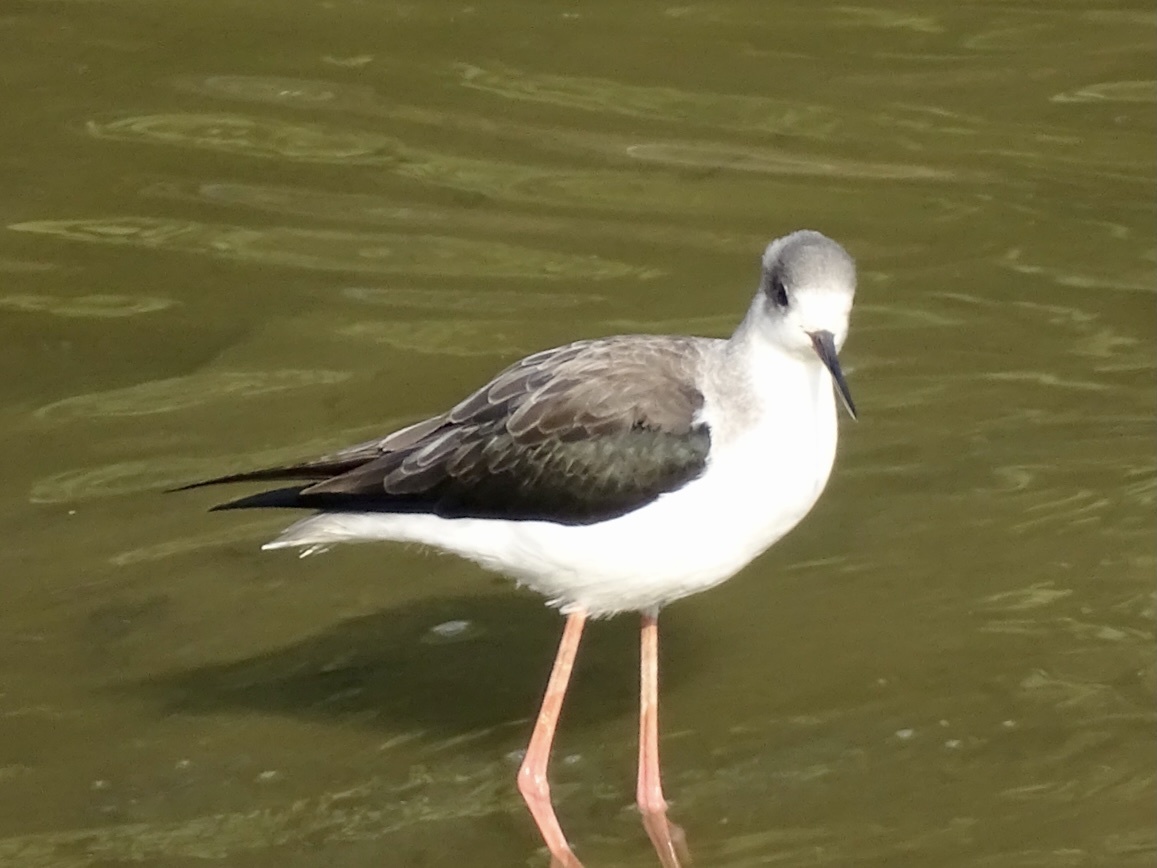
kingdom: Animalia
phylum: Chordata
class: Aves
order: Charadriiformes
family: Recurvirostridae
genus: Himantopus
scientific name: Himantopus himantopus
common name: Black-winged stilt
